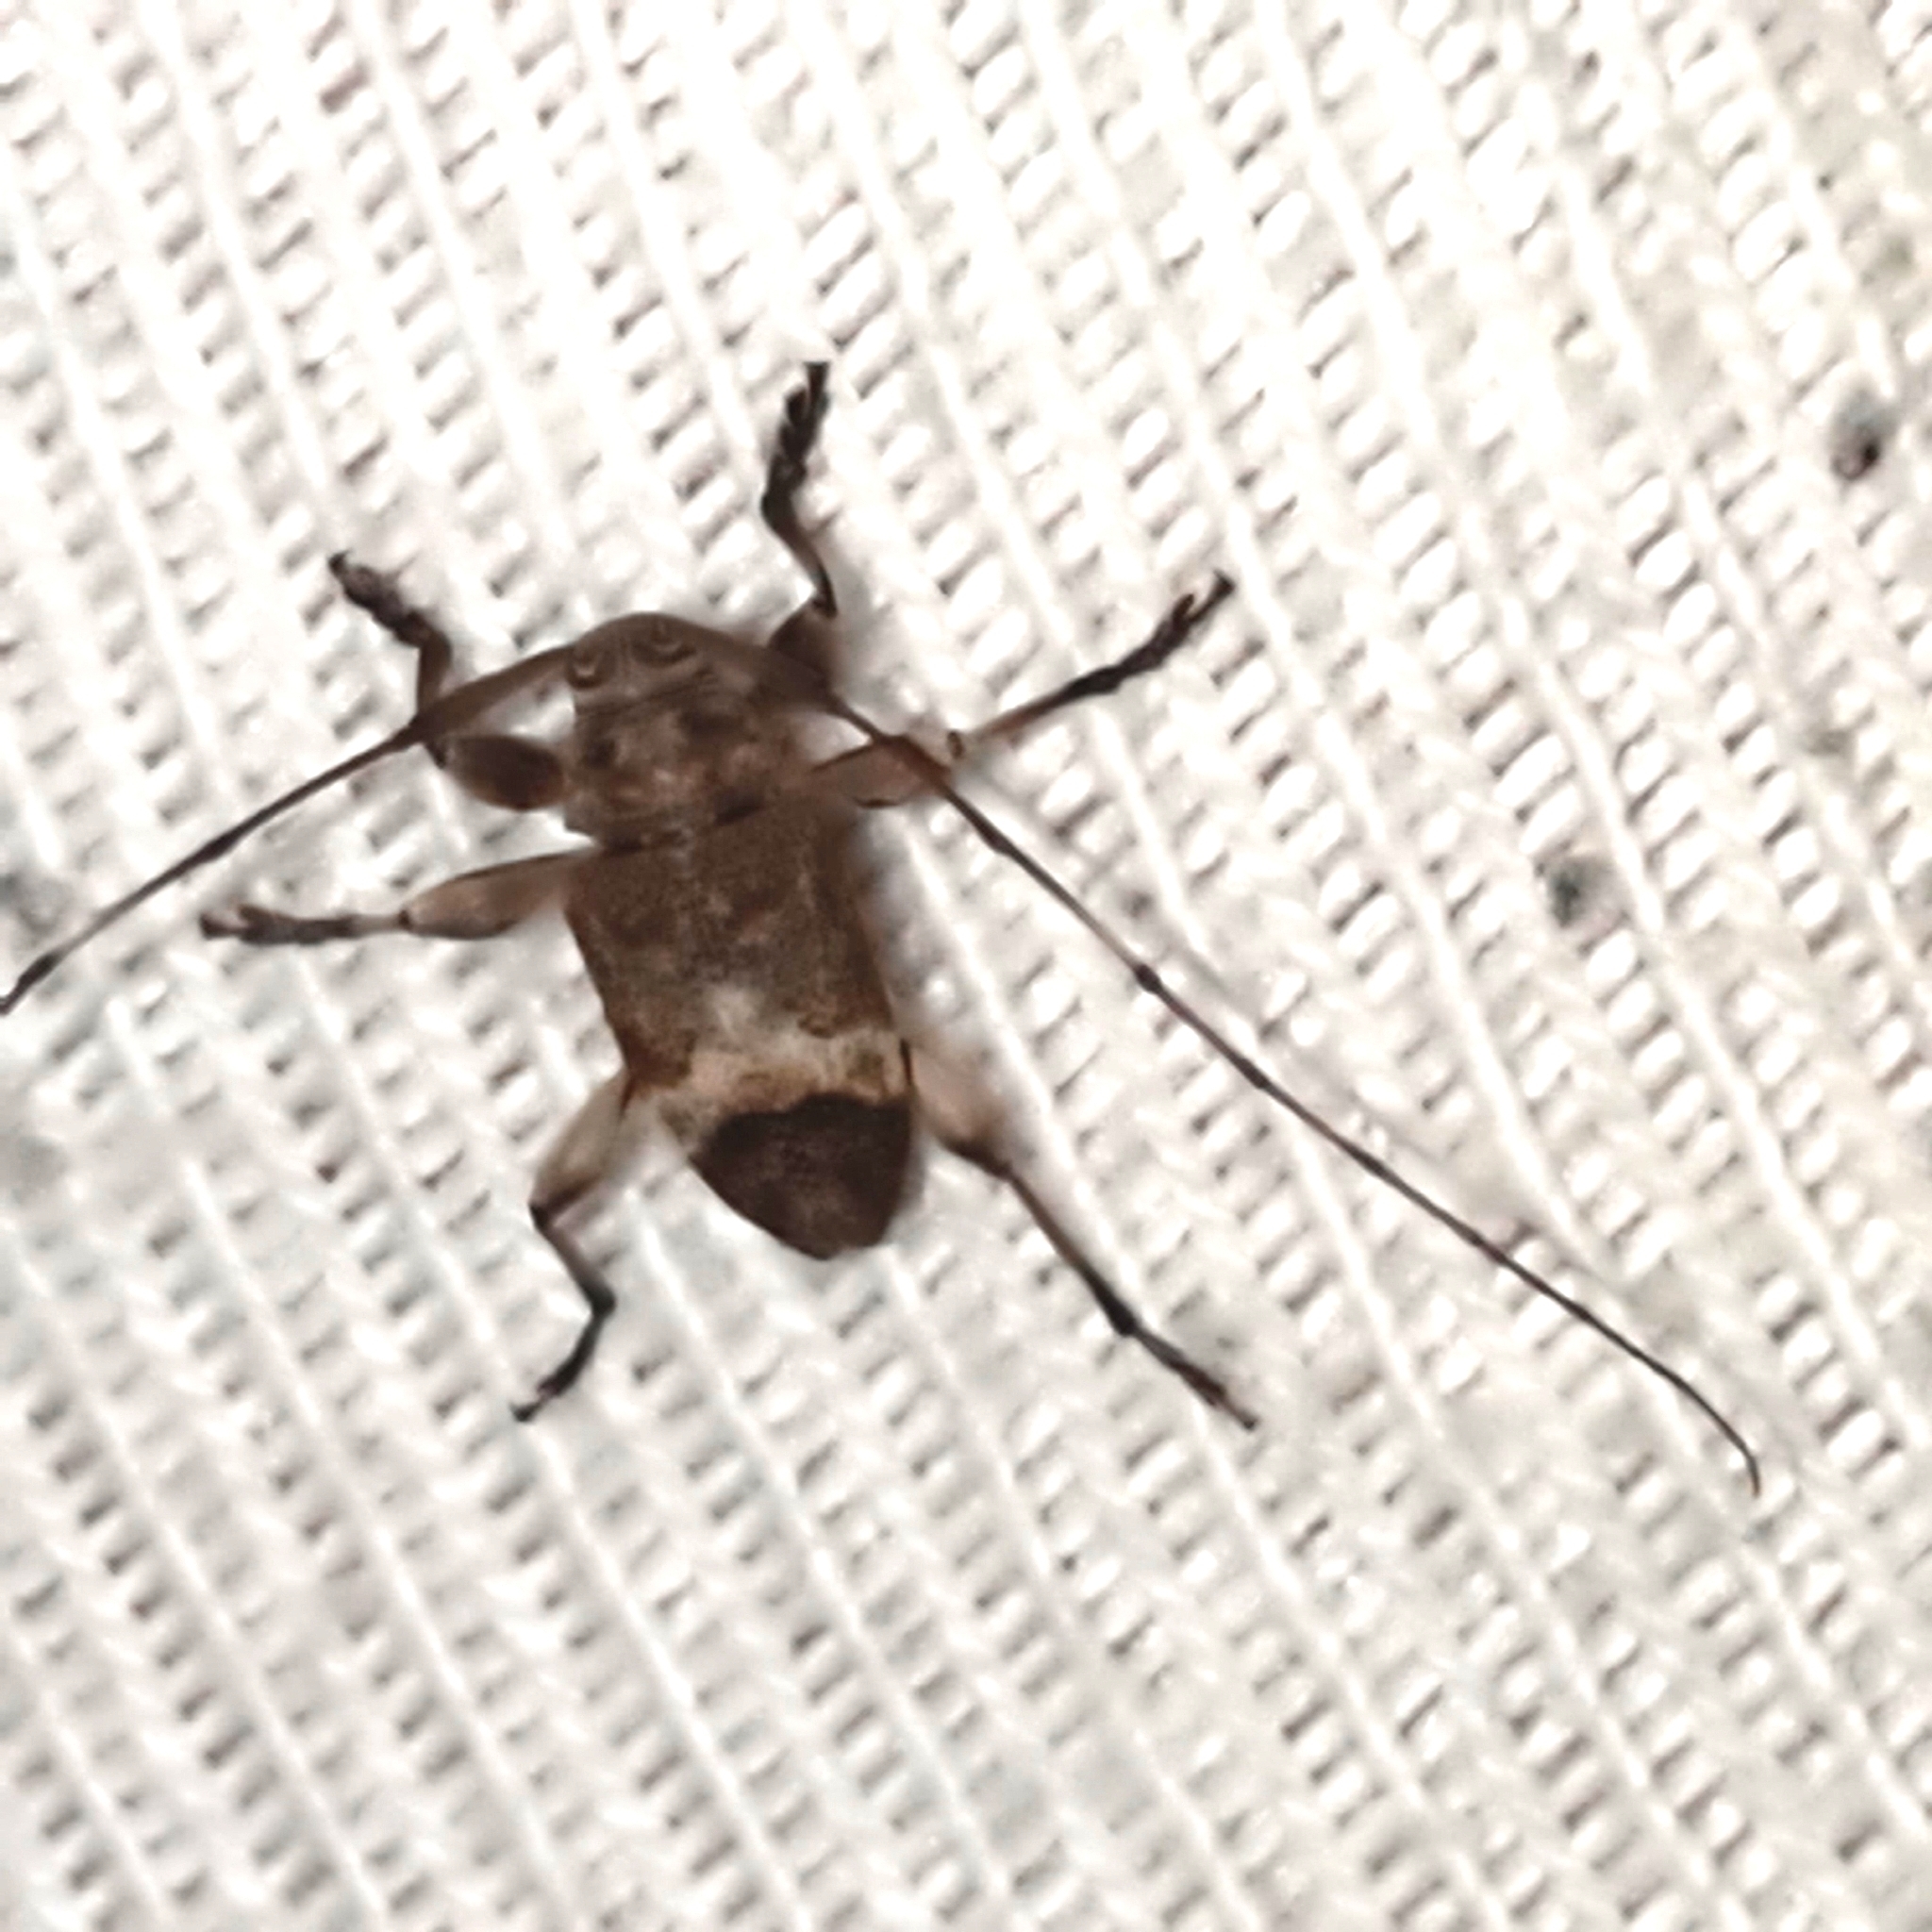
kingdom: Animalia
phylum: Arthropoda
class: Insecta
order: Coleoptera
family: Cerambycidae
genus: Atrypanius
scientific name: Atrypanius implexus
